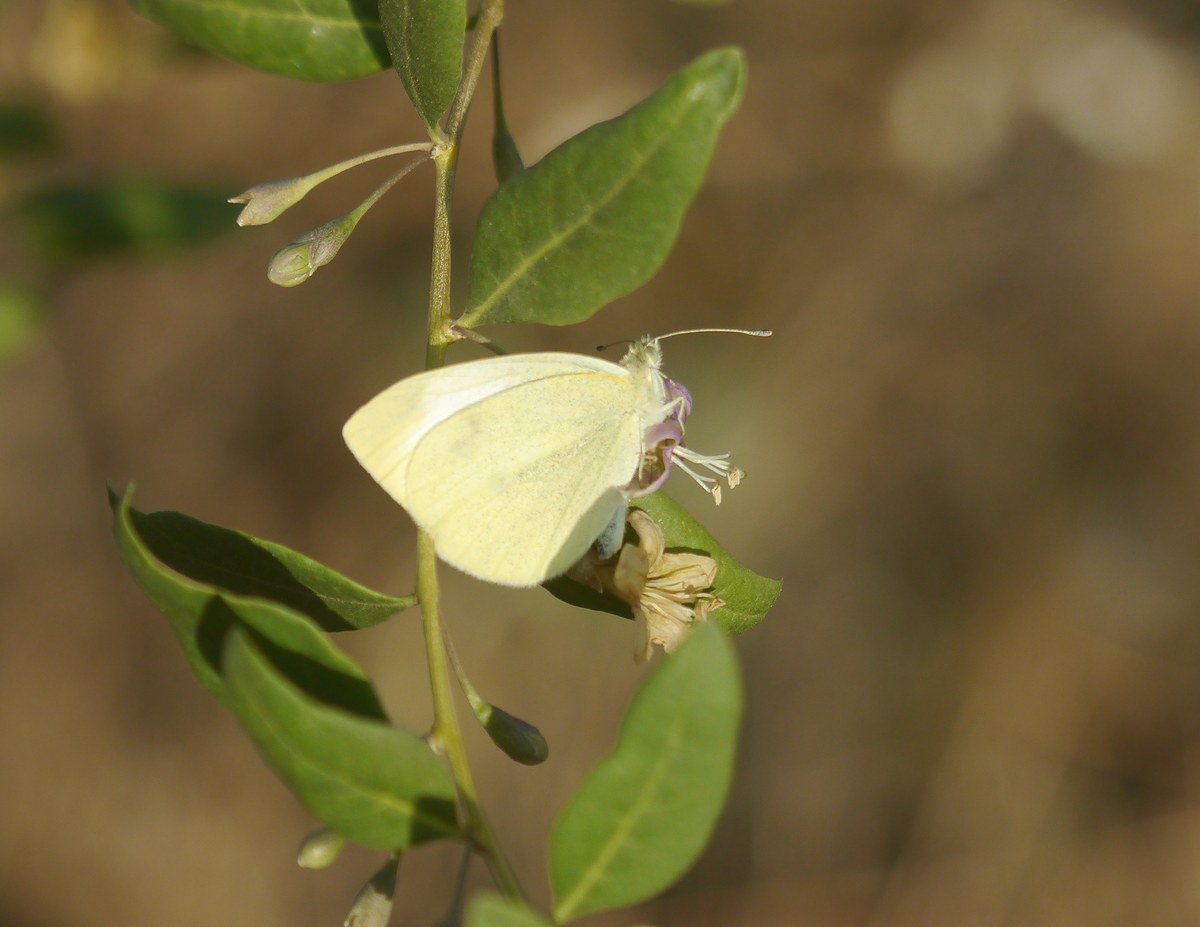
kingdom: Animalia
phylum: Arthropoda
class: Insecta
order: Lepidoptera
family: Pieridae
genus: Pieris
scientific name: Pieris rapae
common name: Small white
